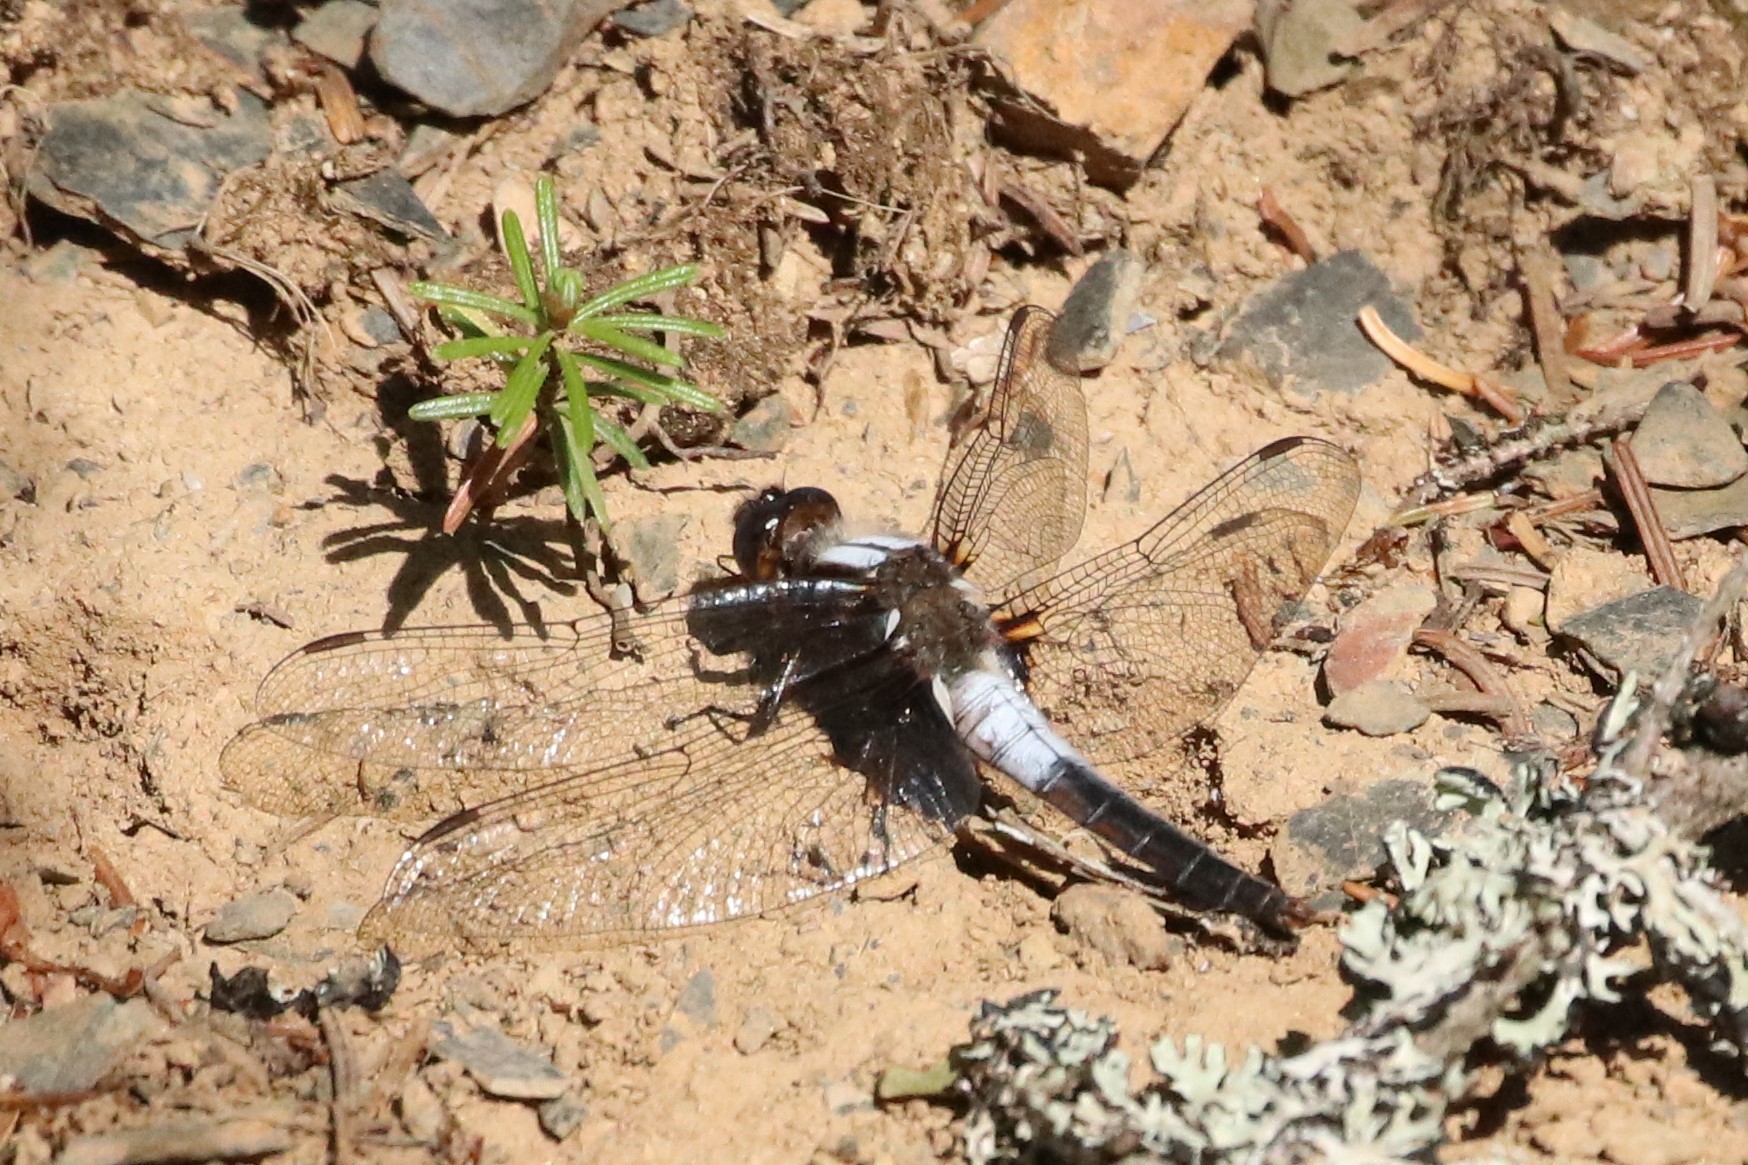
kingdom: Animalia
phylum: Arthropoda
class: Insecta
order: Odonata
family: Libellulidae
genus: Ladona
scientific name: Ladona julia
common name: Chalk-fronted corporal
